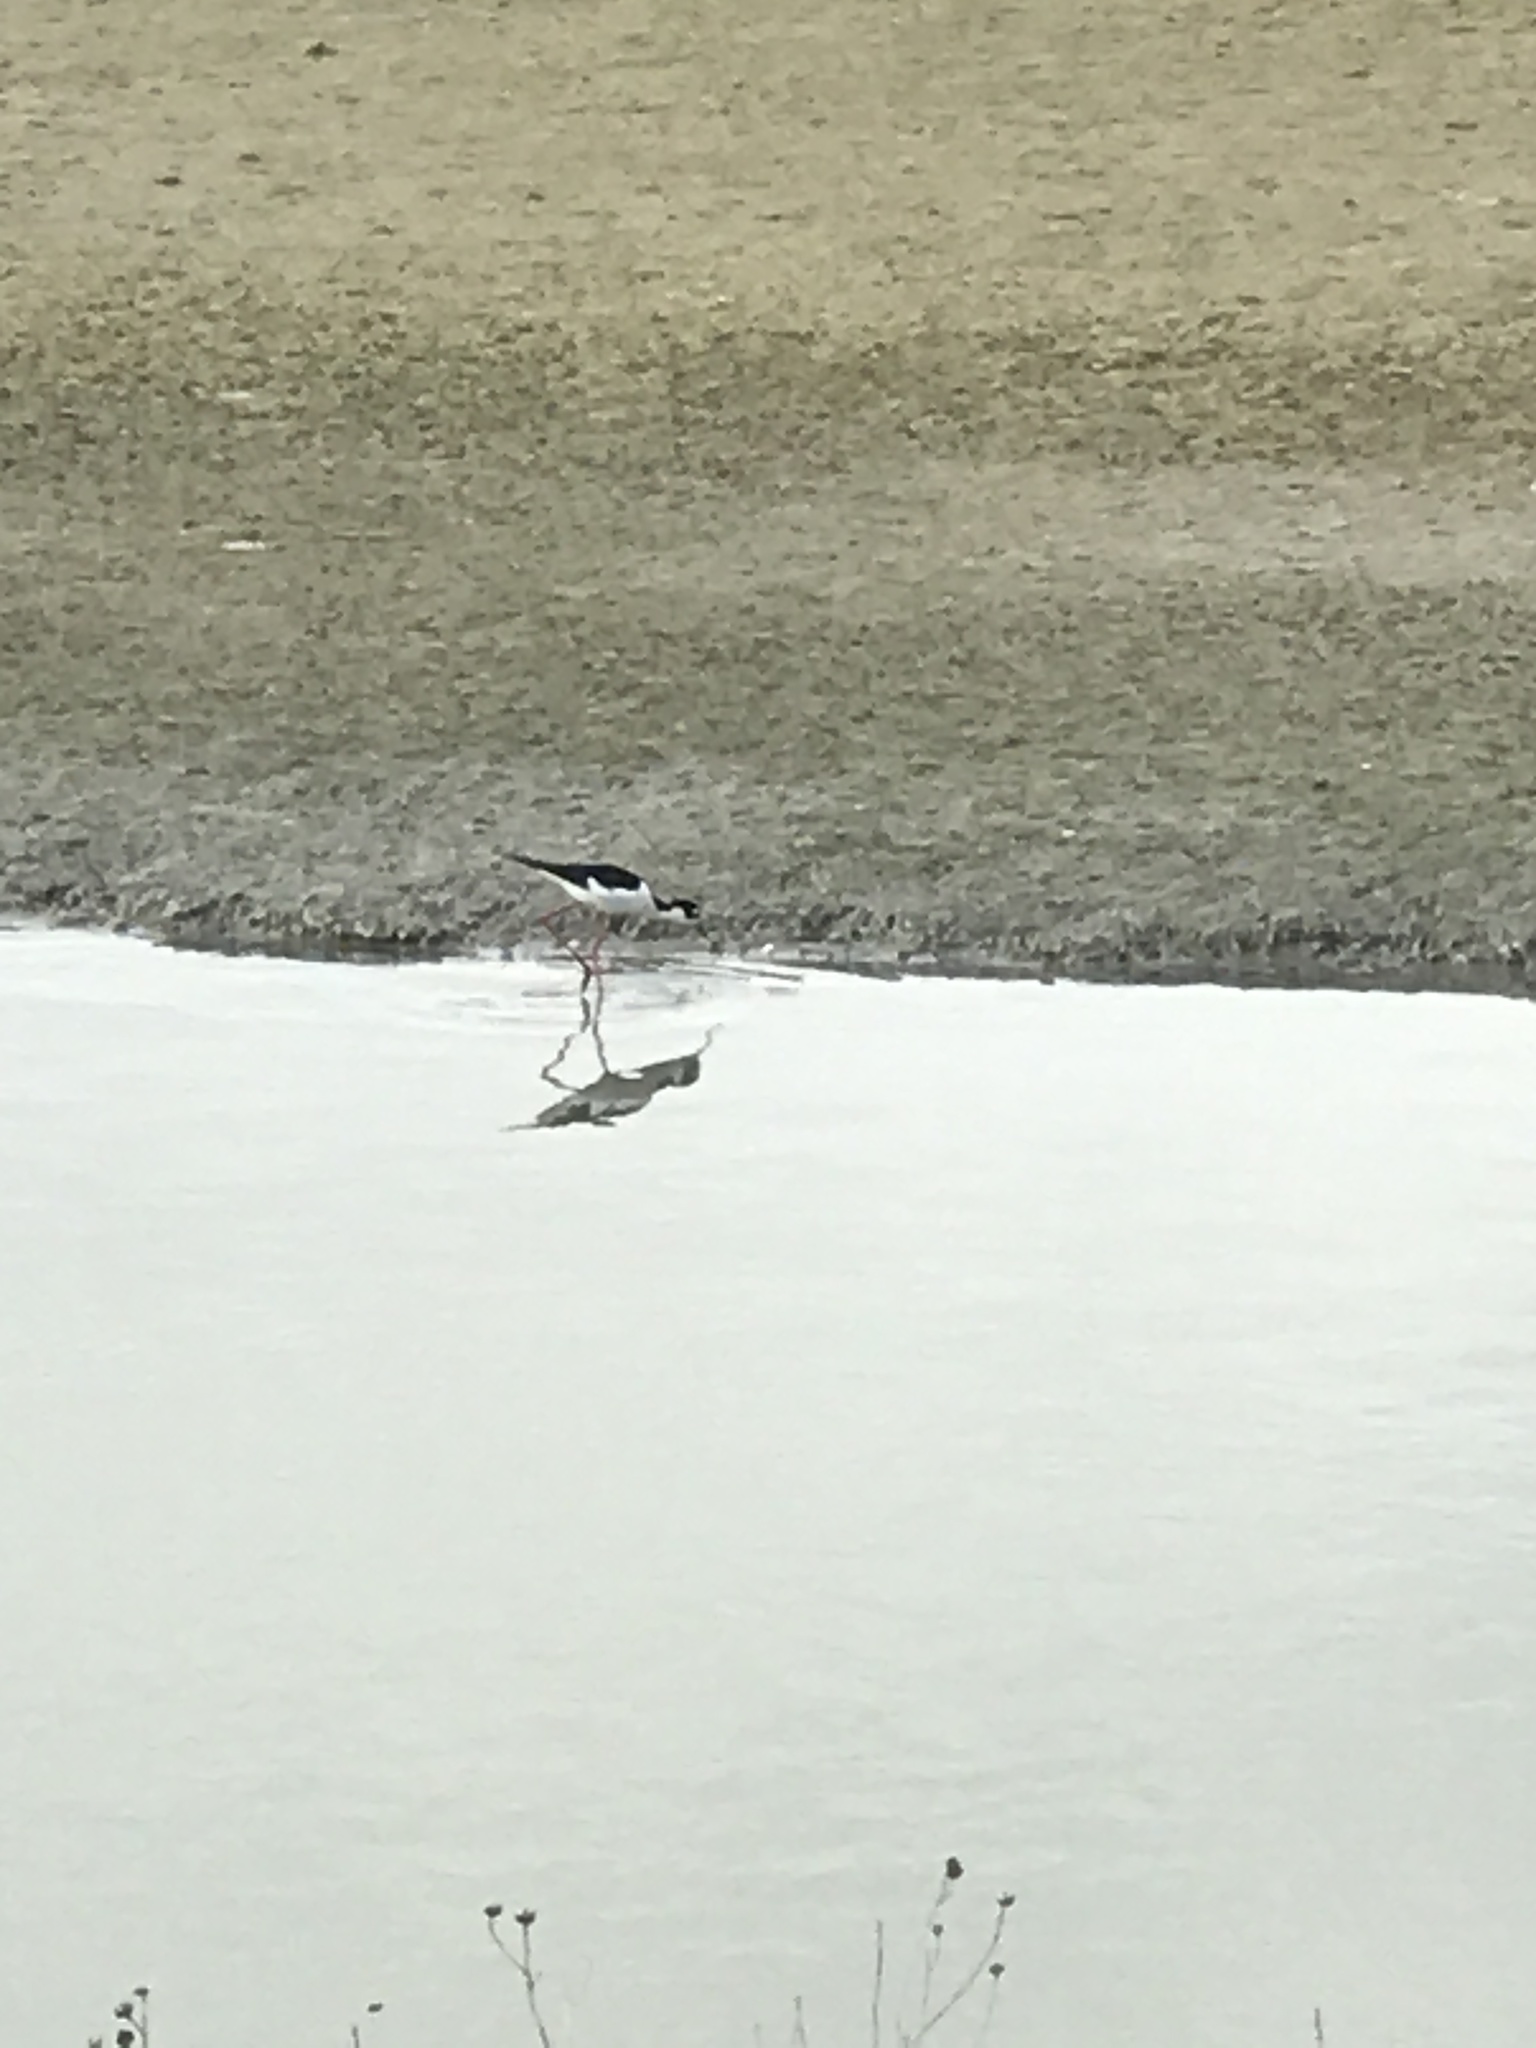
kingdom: Animalia
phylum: Chordata
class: Aves
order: Charadriiformes
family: Recurvirostridae
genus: Himantopus
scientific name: Himantopus mexicanus
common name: Black-necked stilt
